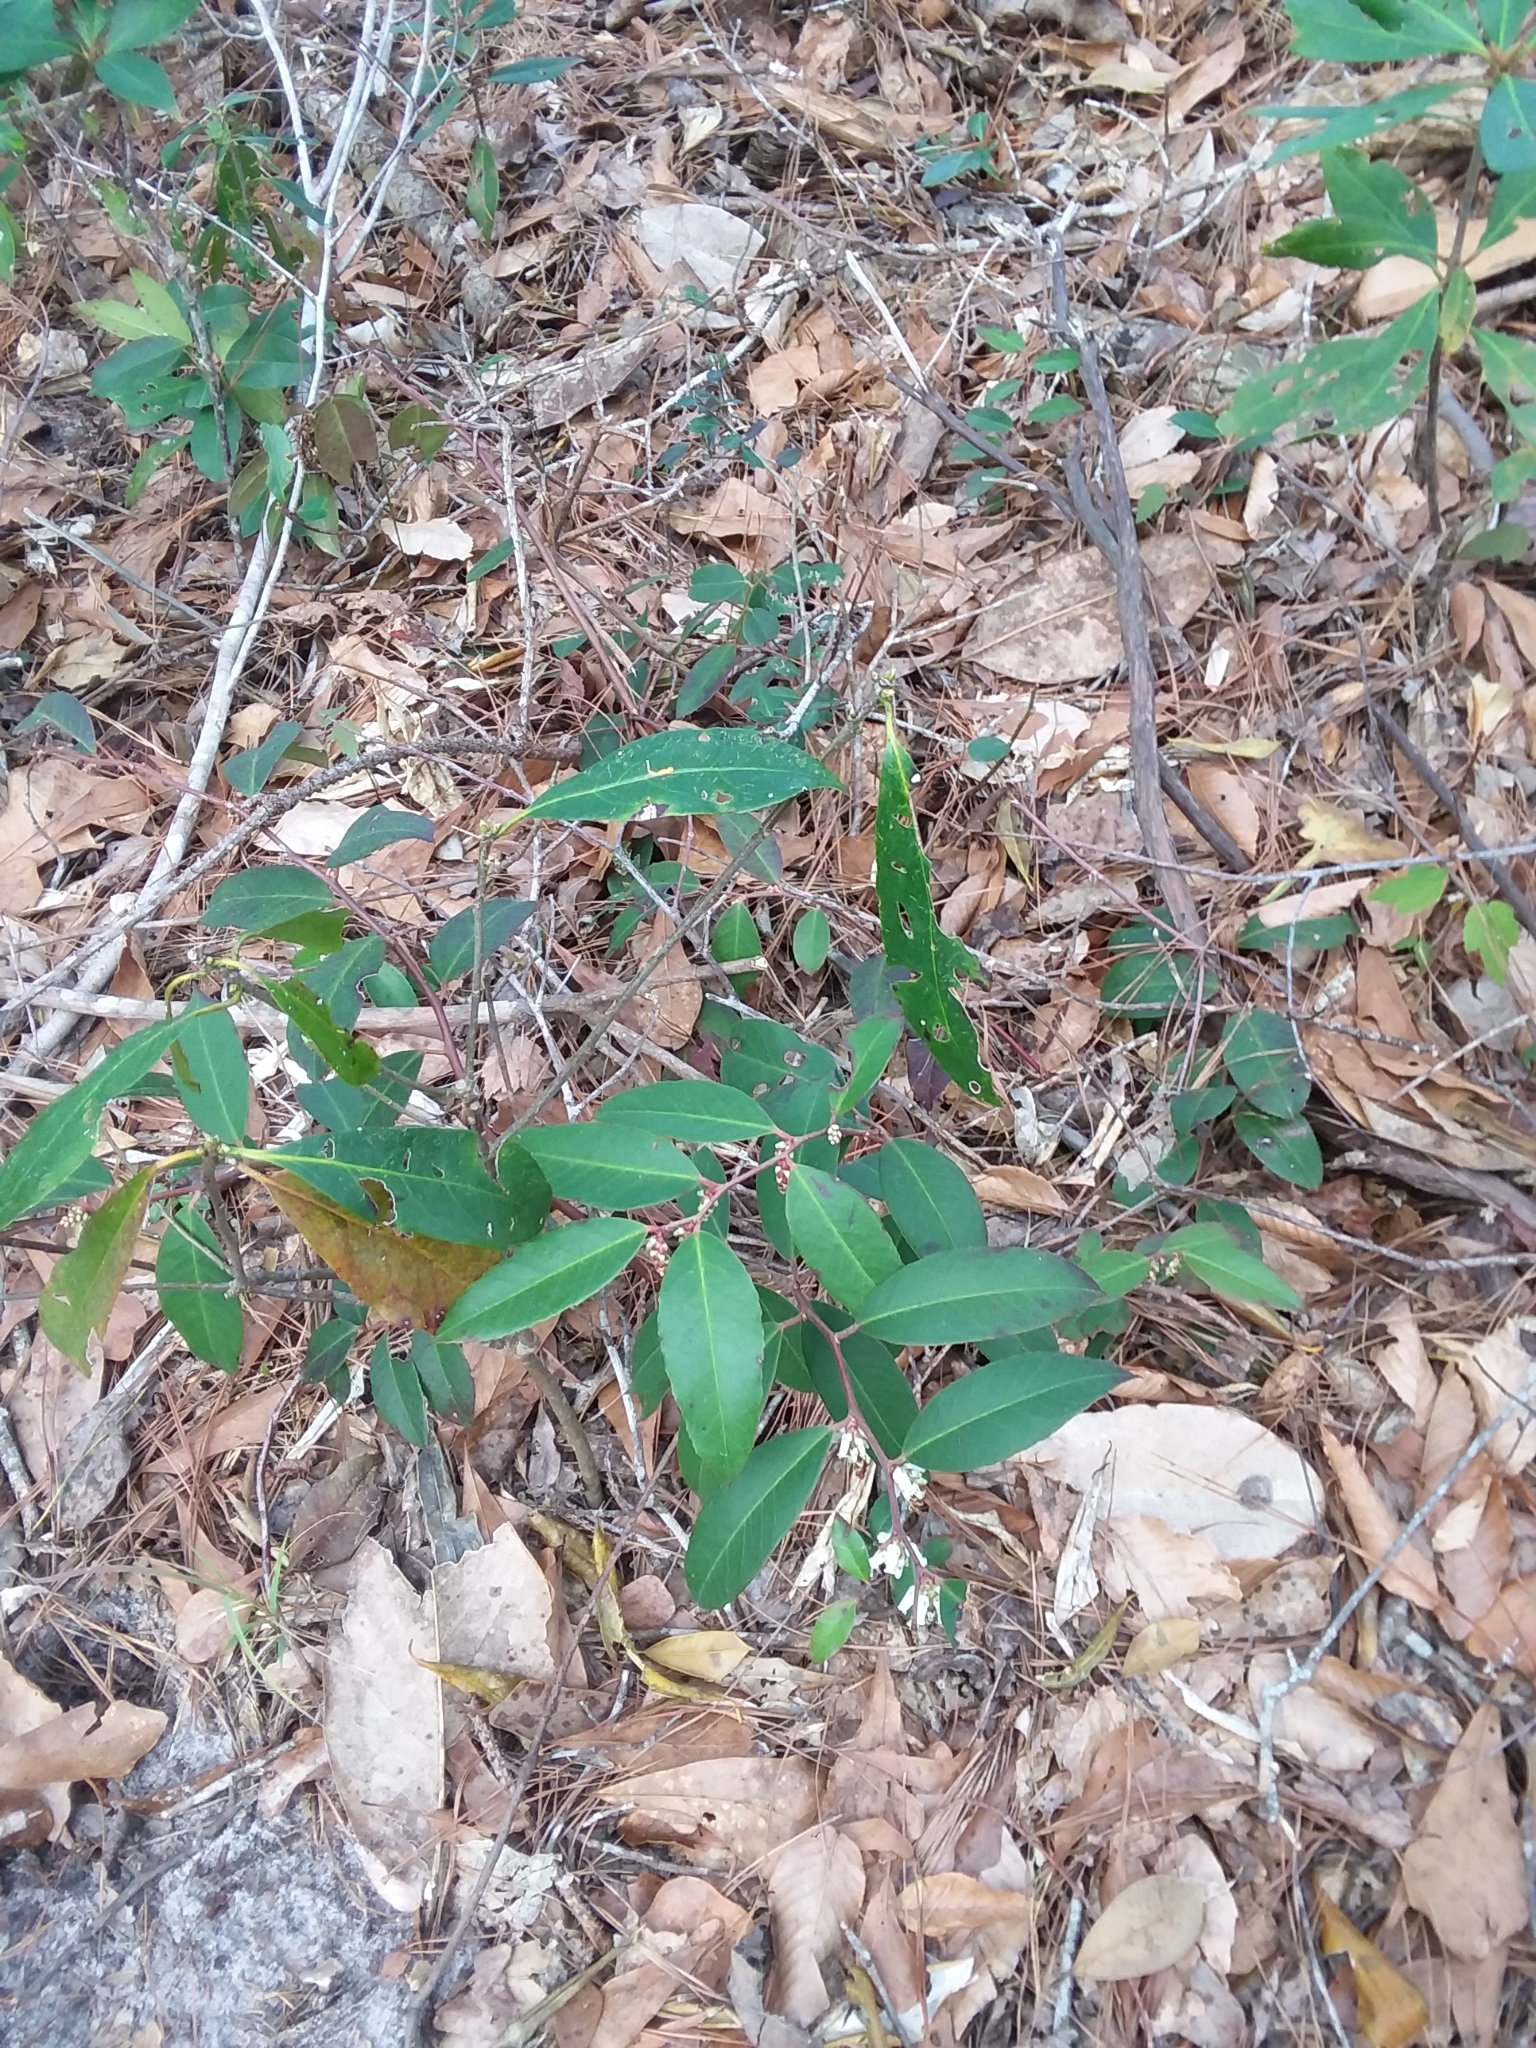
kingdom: Plantae
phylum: Tracheophyta
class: Magnoliopsida
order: Ericales
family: Ericaceae
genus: Leucothoe
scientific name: Leucothoe axillaris
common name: Leucothoe
